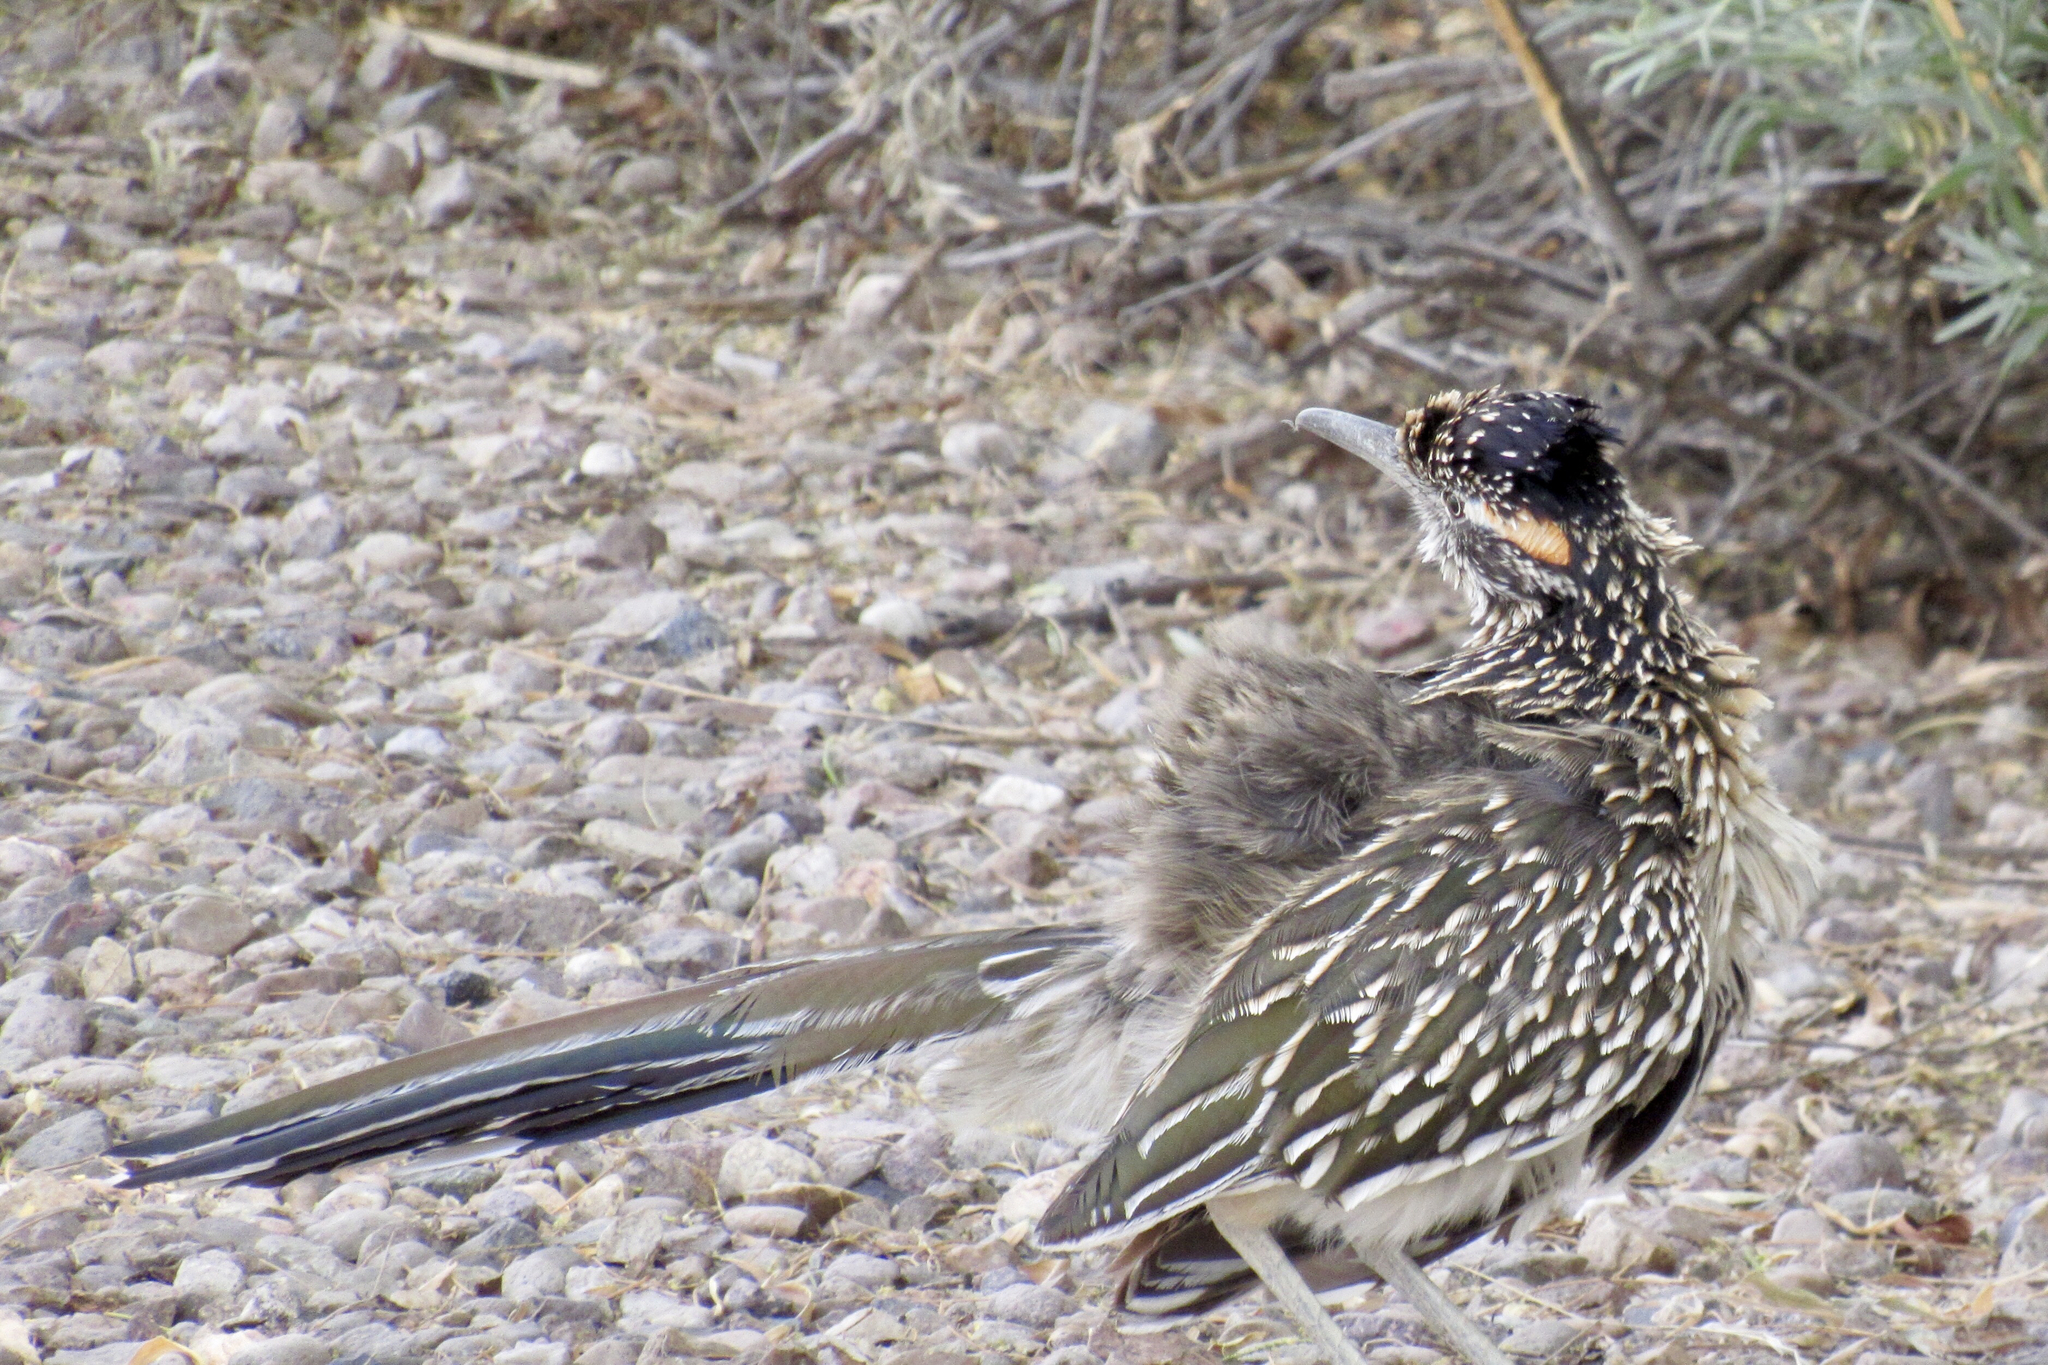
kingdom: Animalia
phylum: Chordata
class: Aves
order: Cuculiformes
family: Cuculidae
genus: Geococcyx
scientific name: Geococcyx californianus
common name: Greater roadrunner
